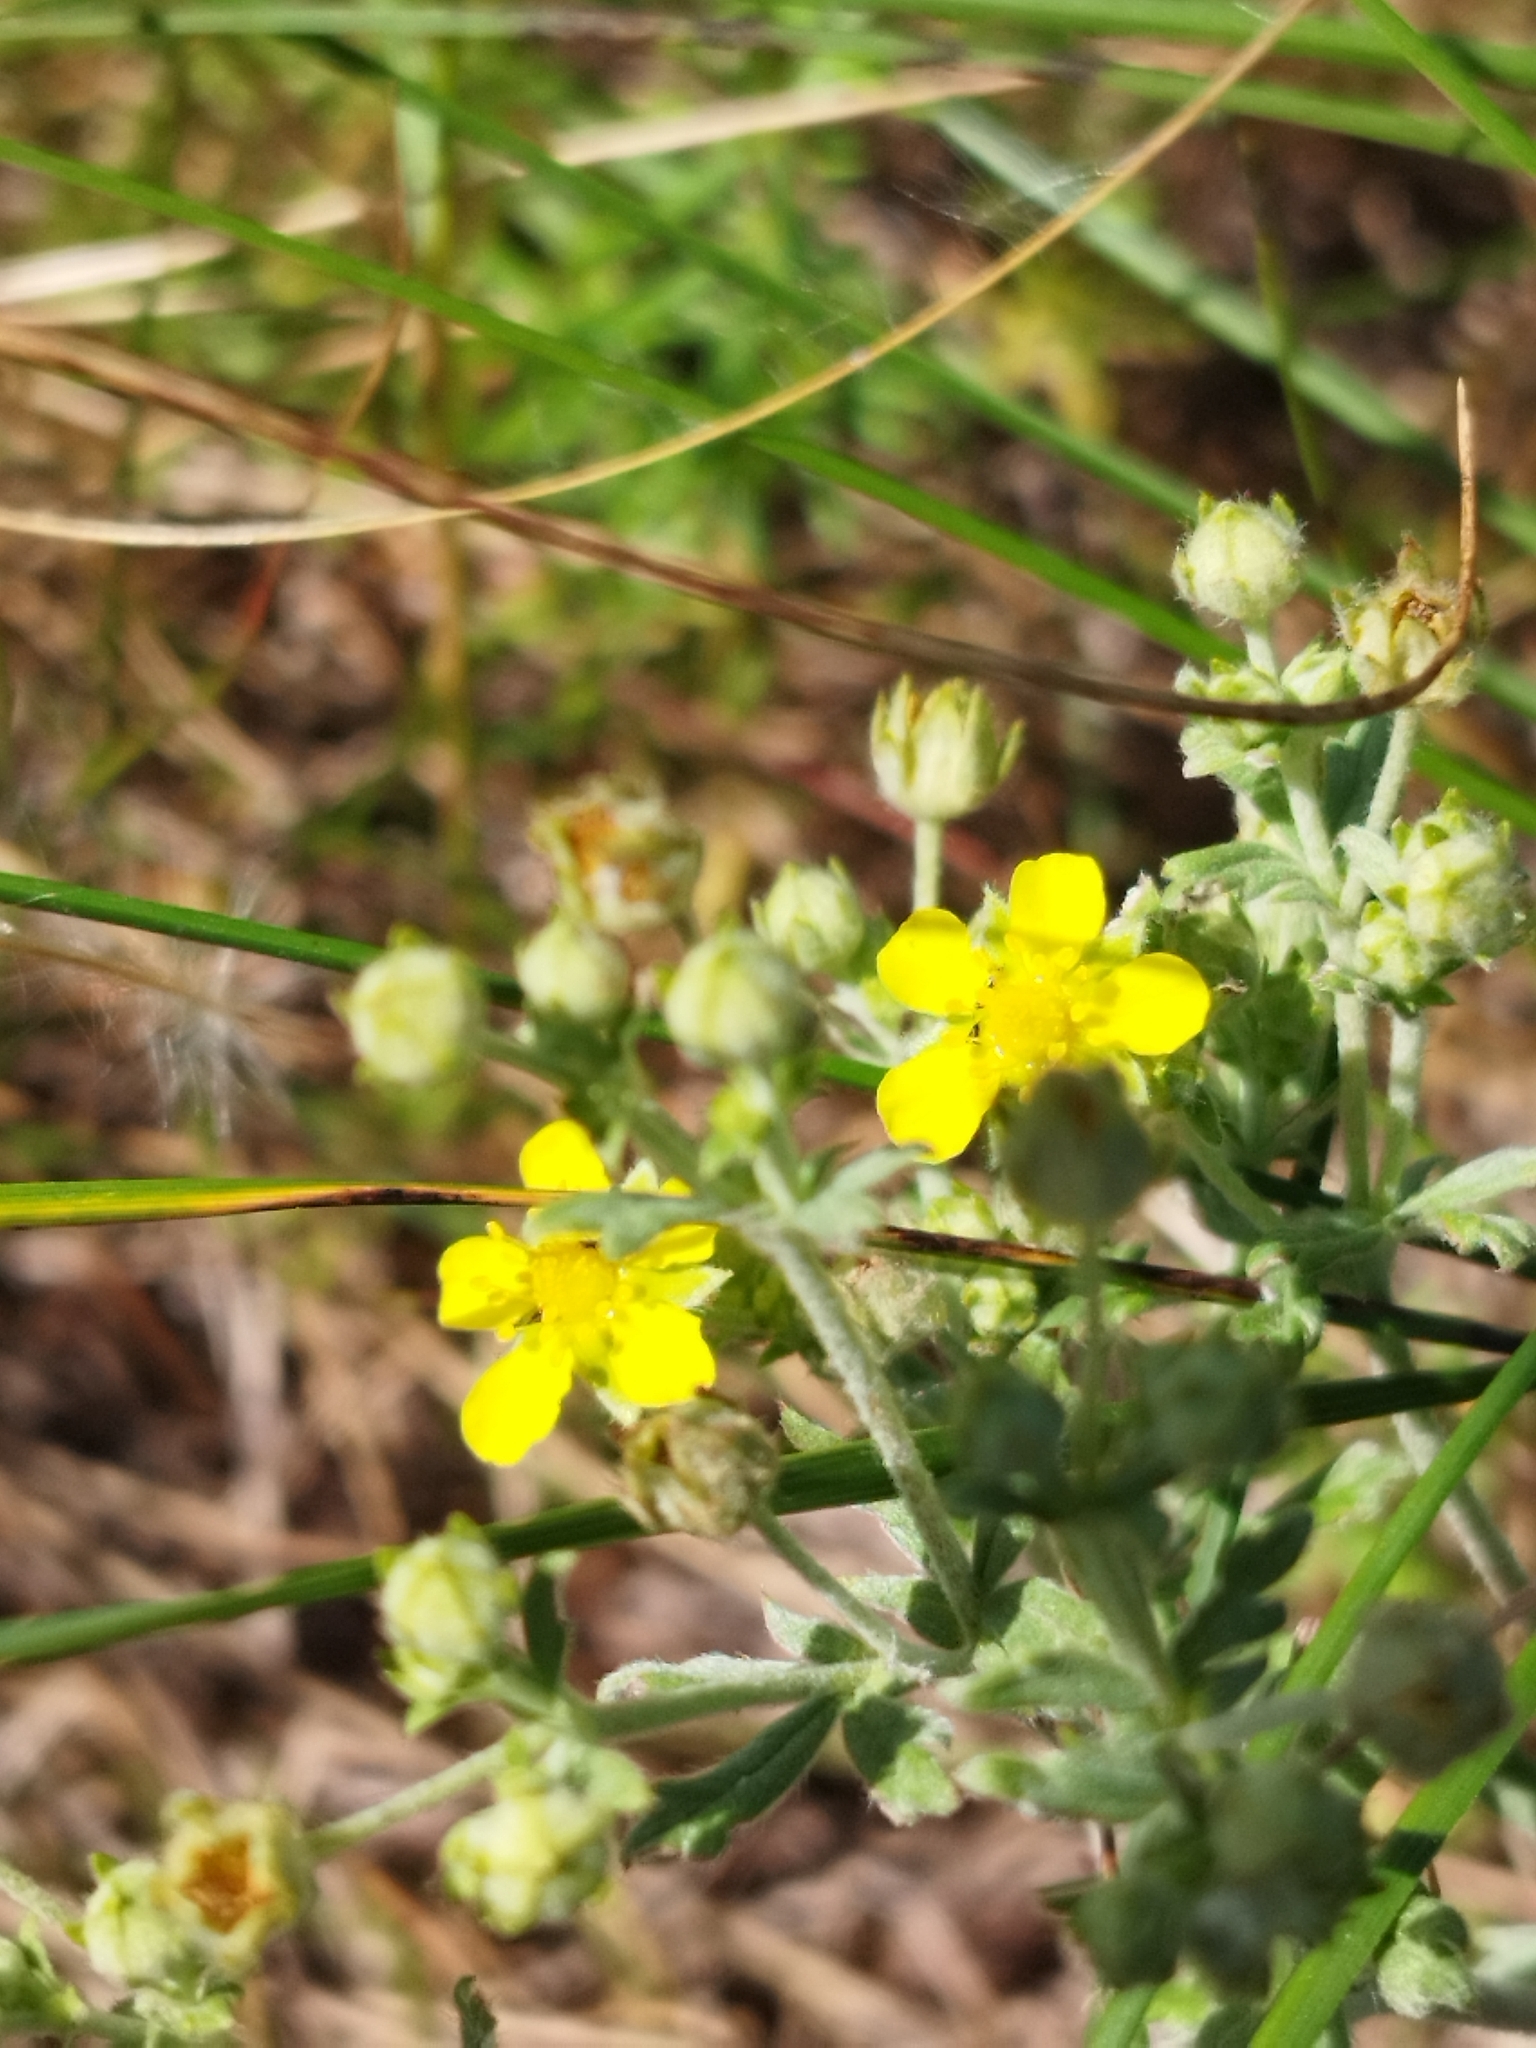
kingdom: Plantae
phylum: Tracheophyta
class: Magnoliopsida
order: Rosales
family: Rosaceae
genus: Potentilla
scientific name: Potentilla argentea
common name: Hoary cinquefoil
